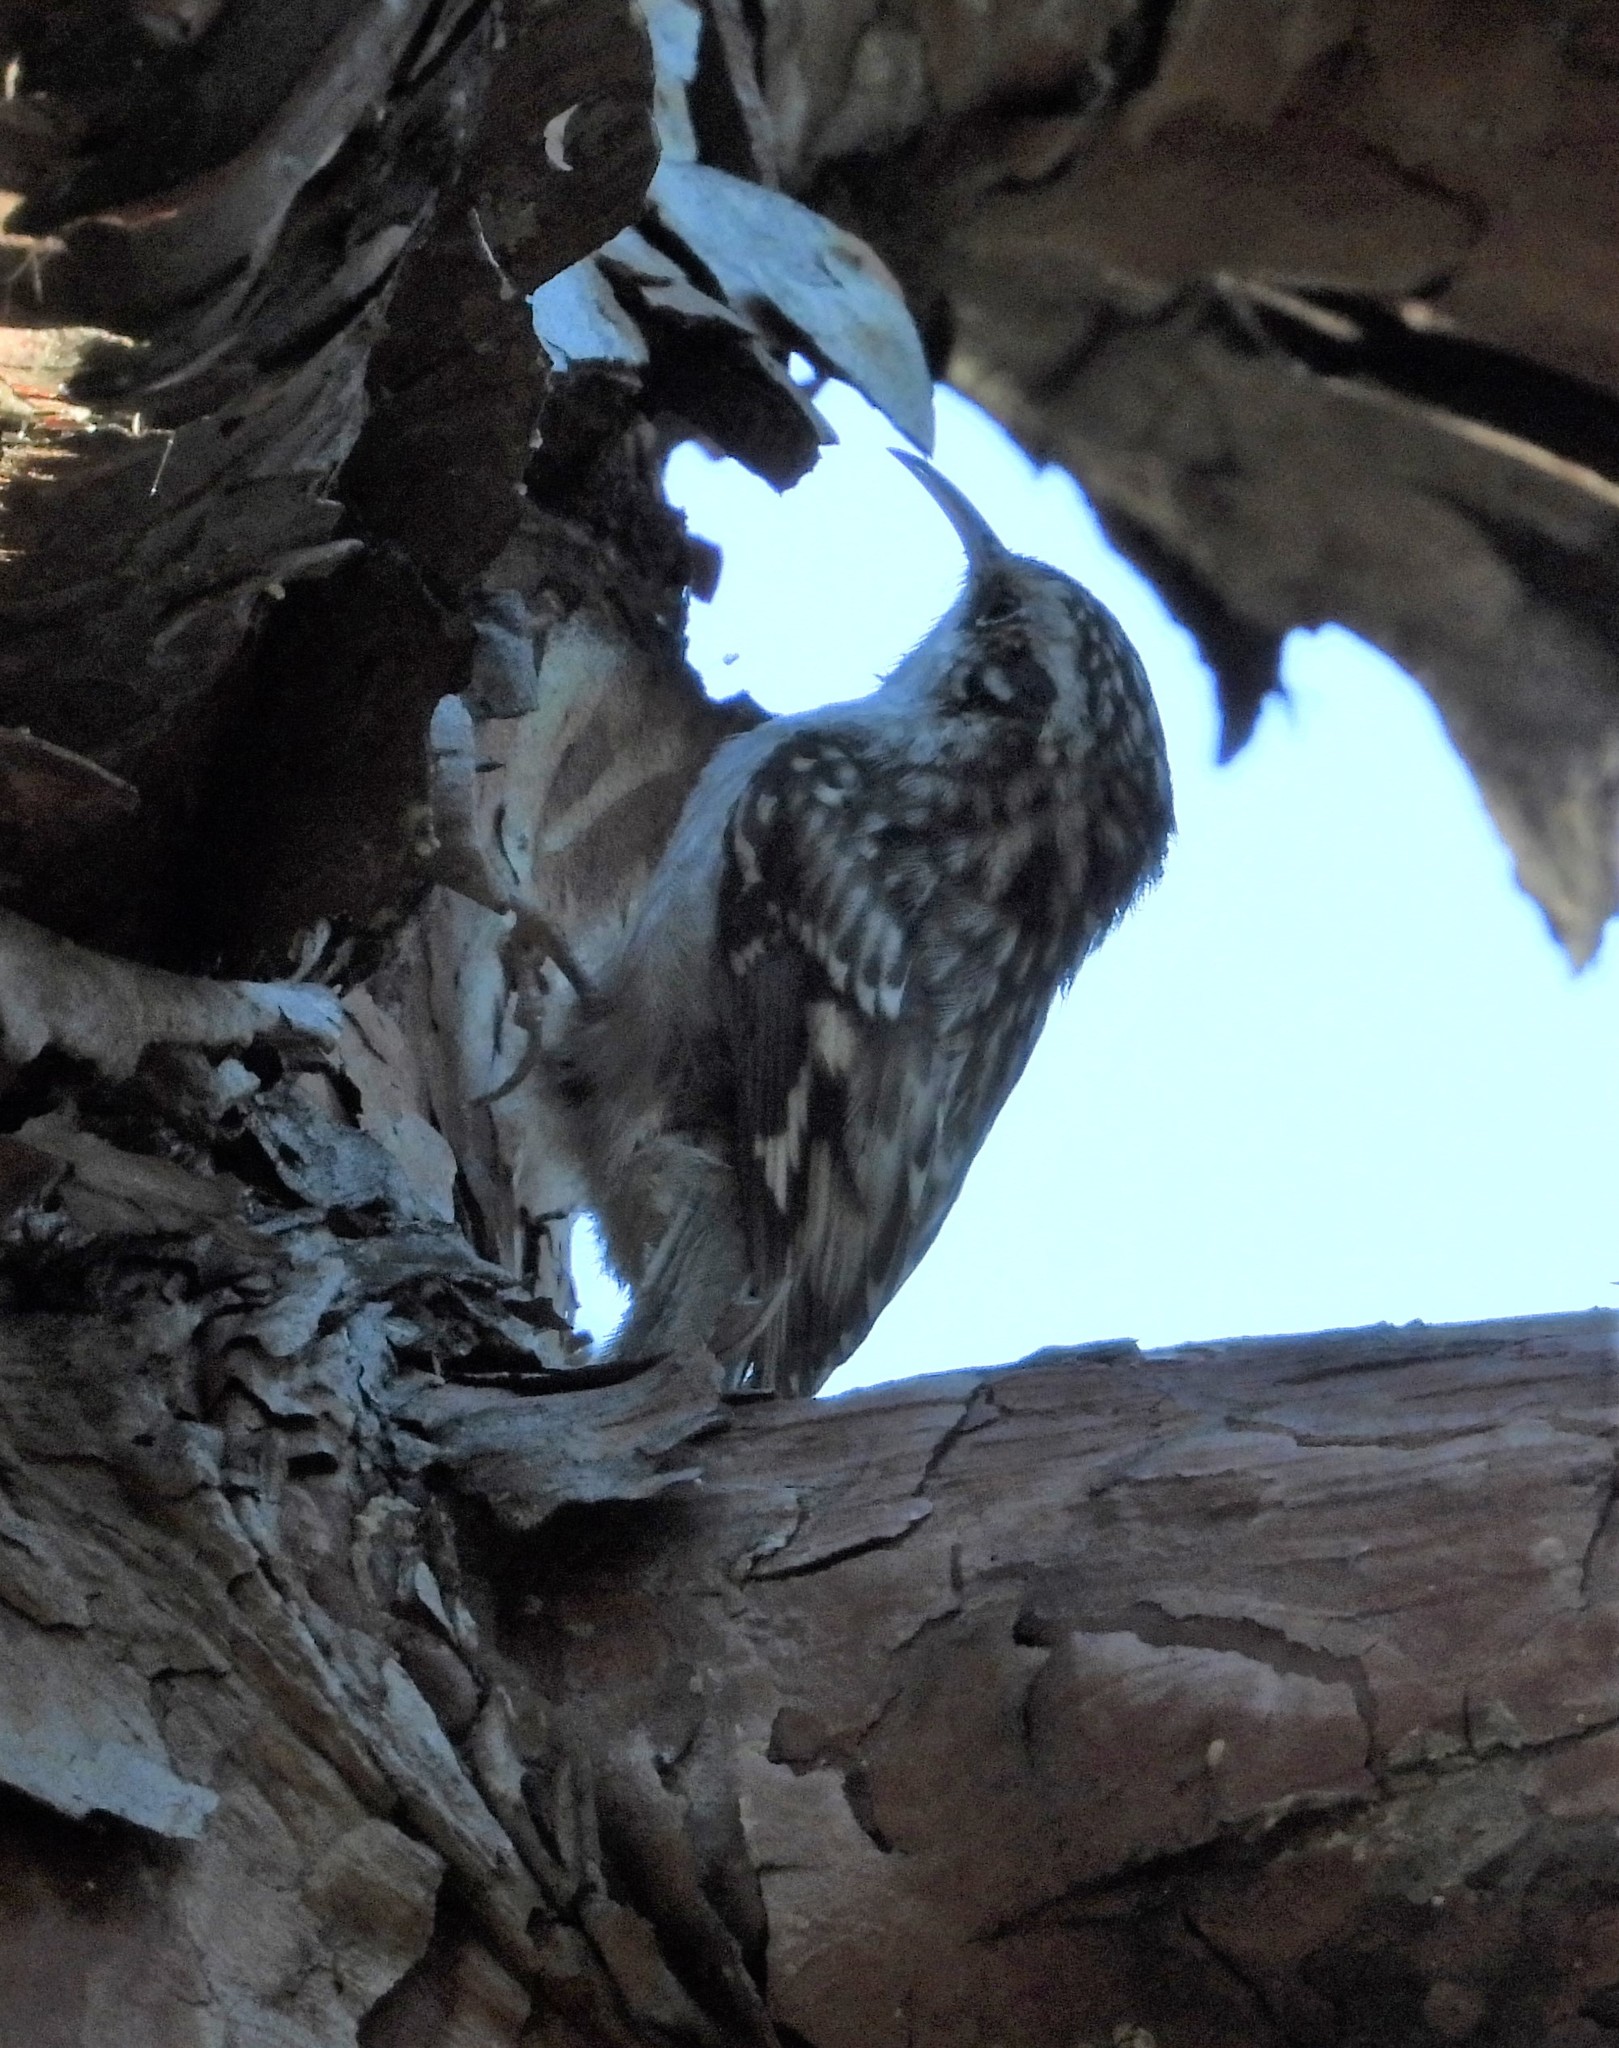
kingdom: Animalia
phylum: Chordata
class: Aves
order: Passeriformes
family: Certhiidae
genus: Certhia
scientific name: Certhia americana
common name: Brown creeper
